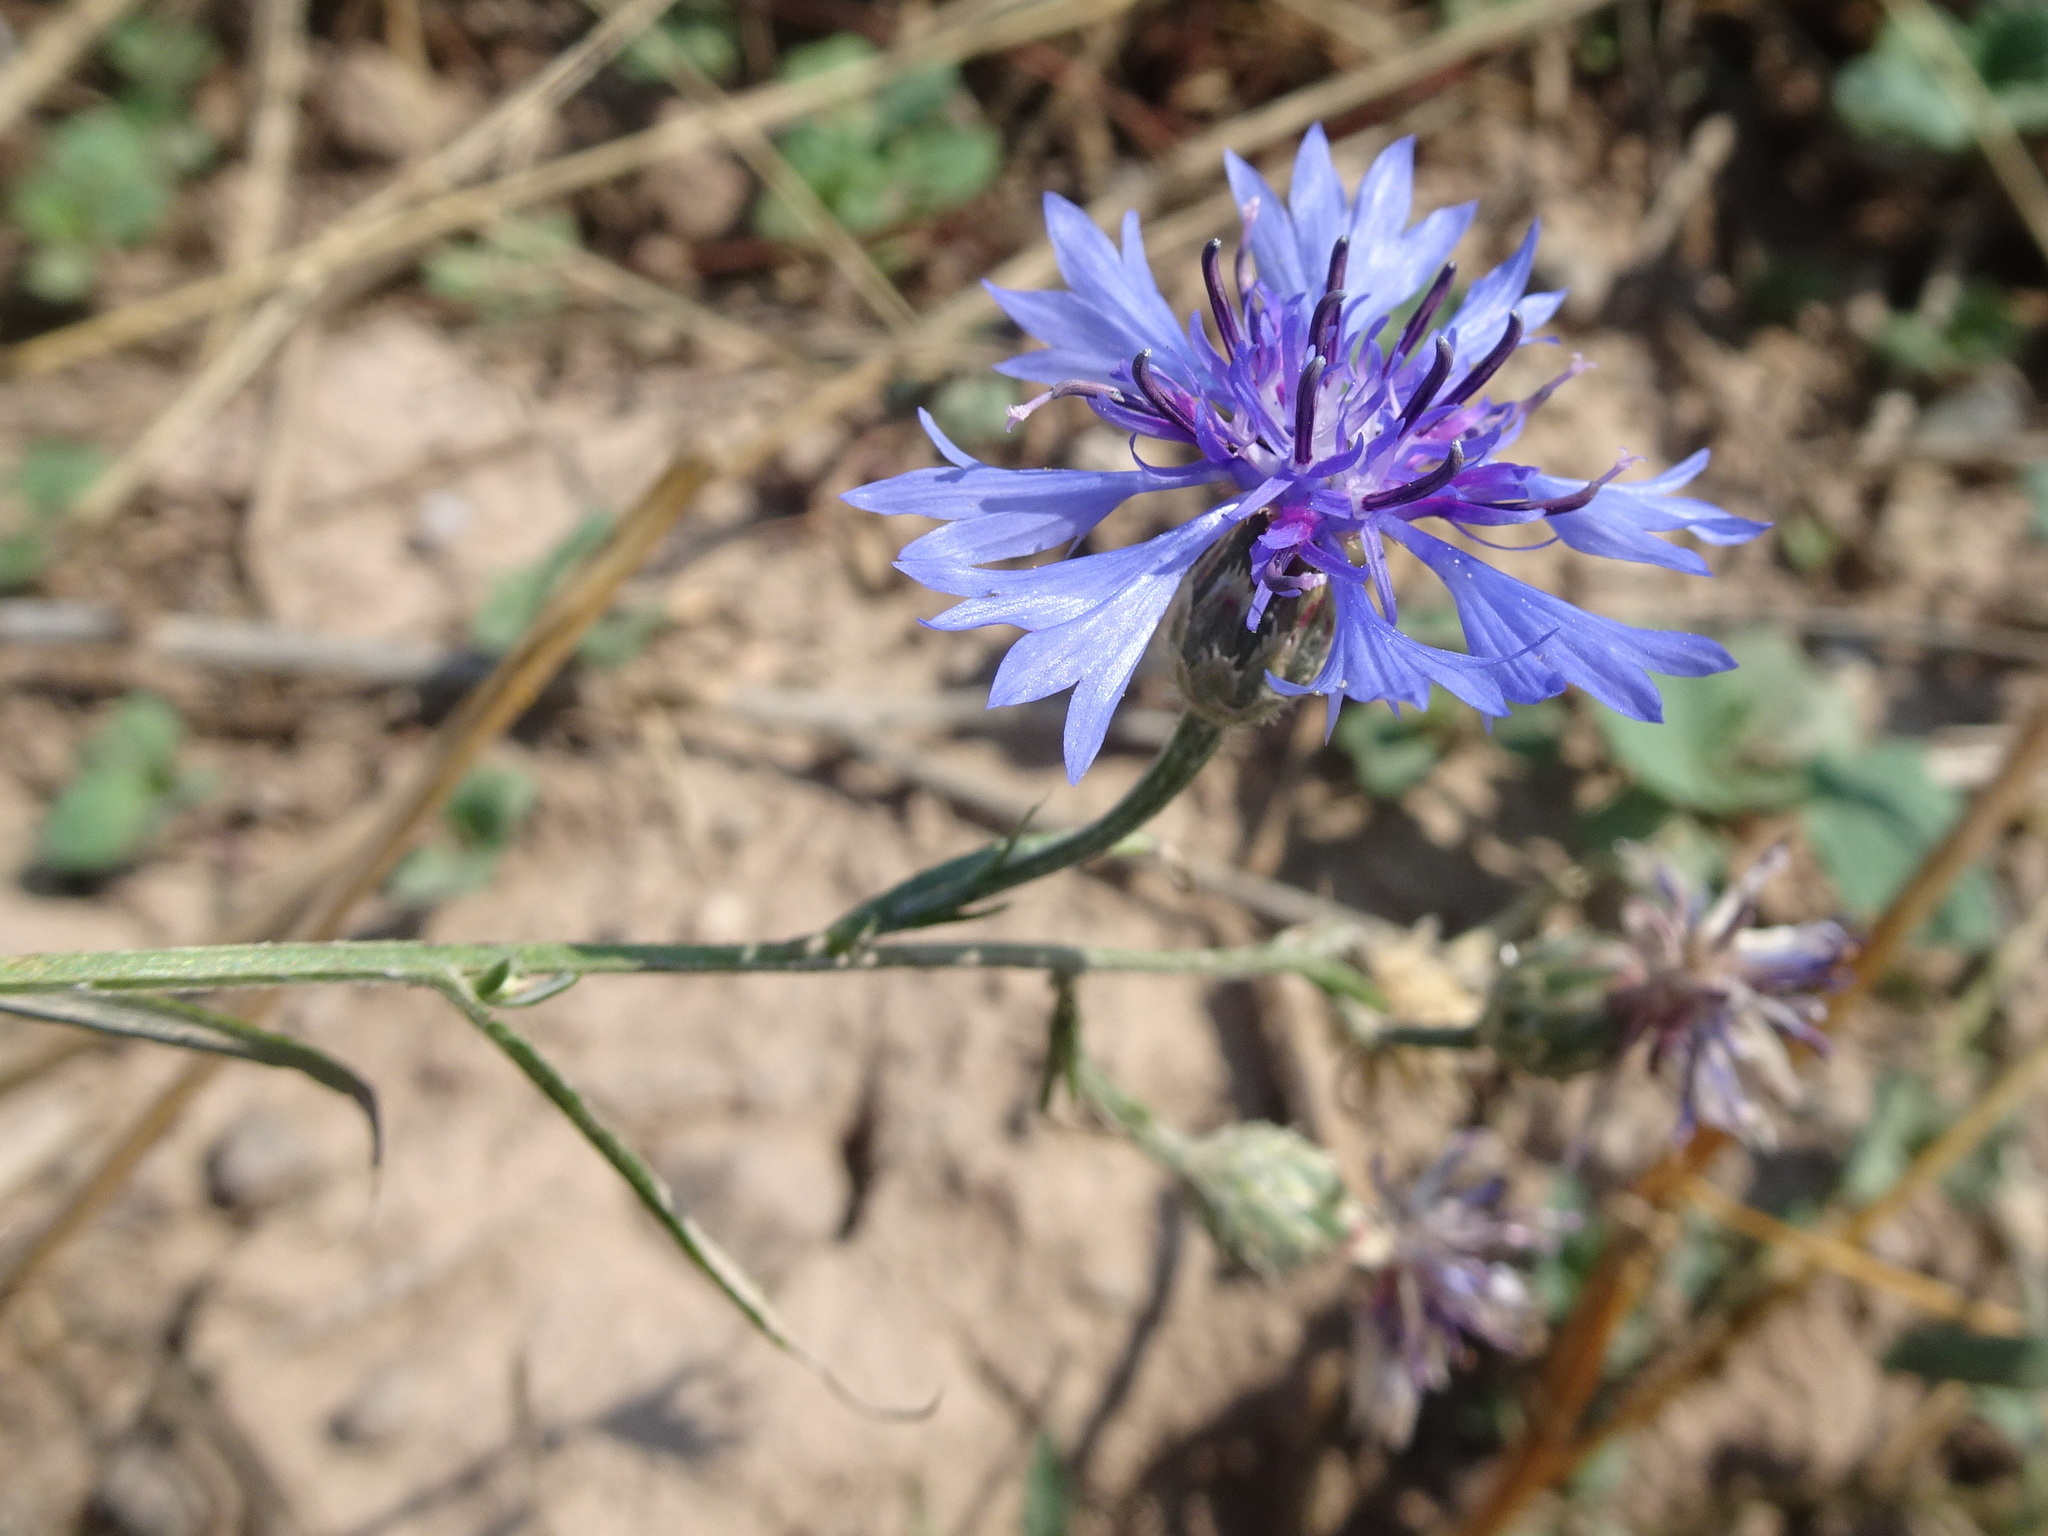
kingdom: Plantae
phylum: Tracheophyta
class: Magnoliopsida
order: Asterales
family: Asteraceae
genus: Centaurea
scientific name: Centaurea cyanus
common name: Cornflower
